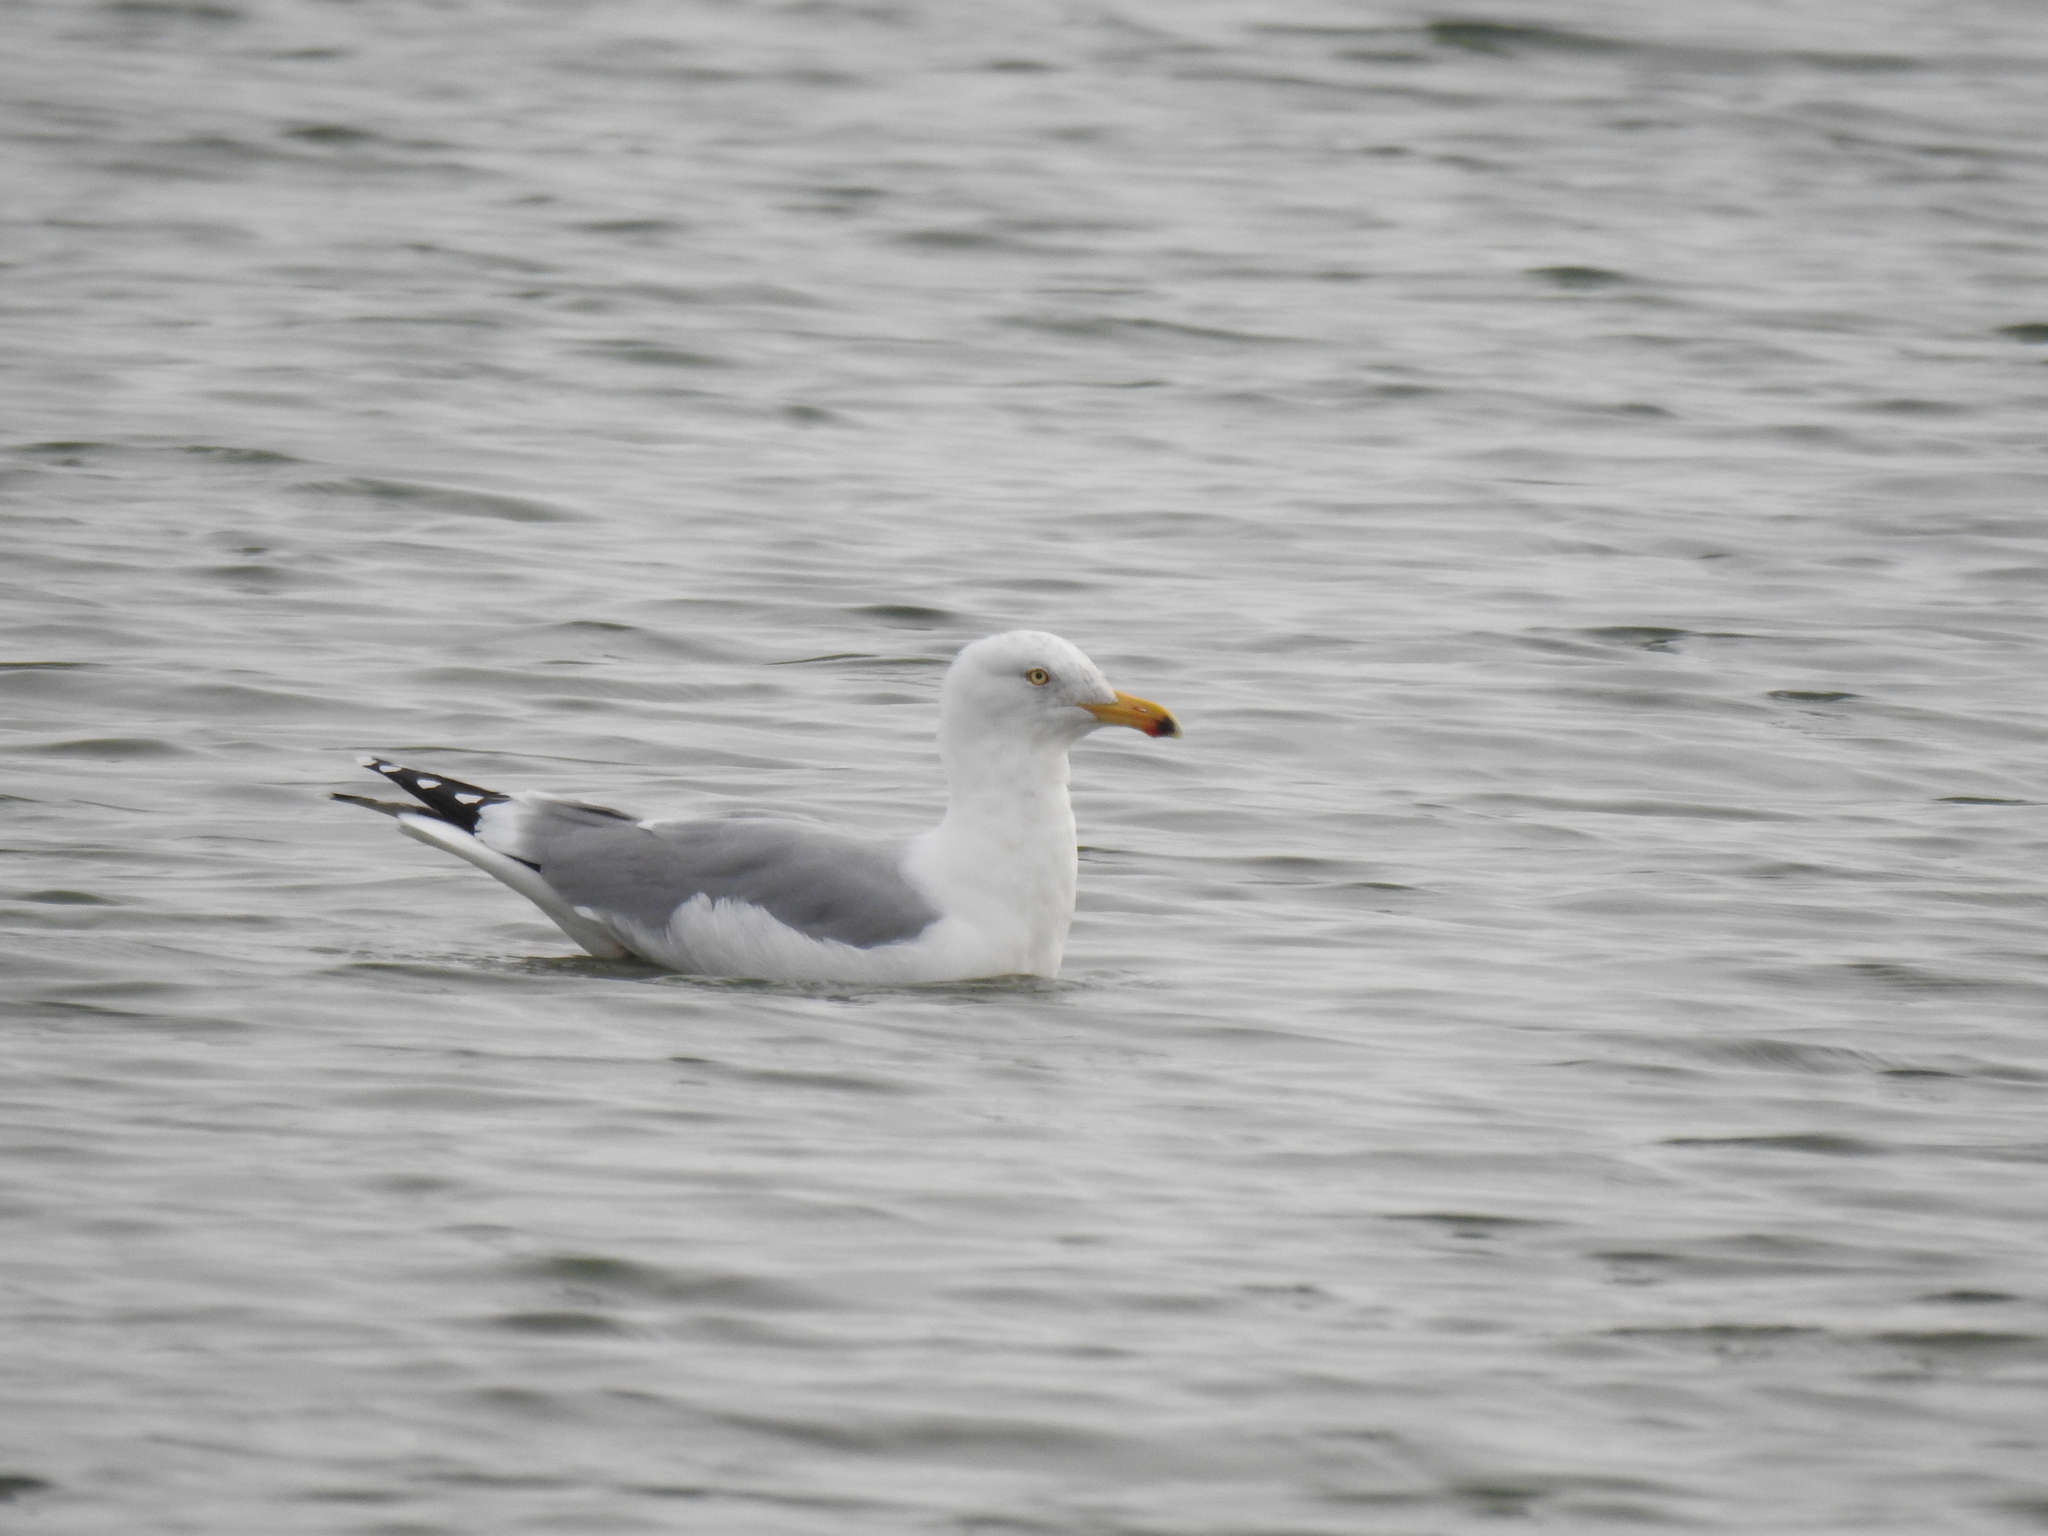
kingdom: Animalia
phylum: Chordata
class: Aves
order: Charadriiformes
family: Laridae
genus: Larus
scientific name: Larus argentatus
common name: Herring gull
